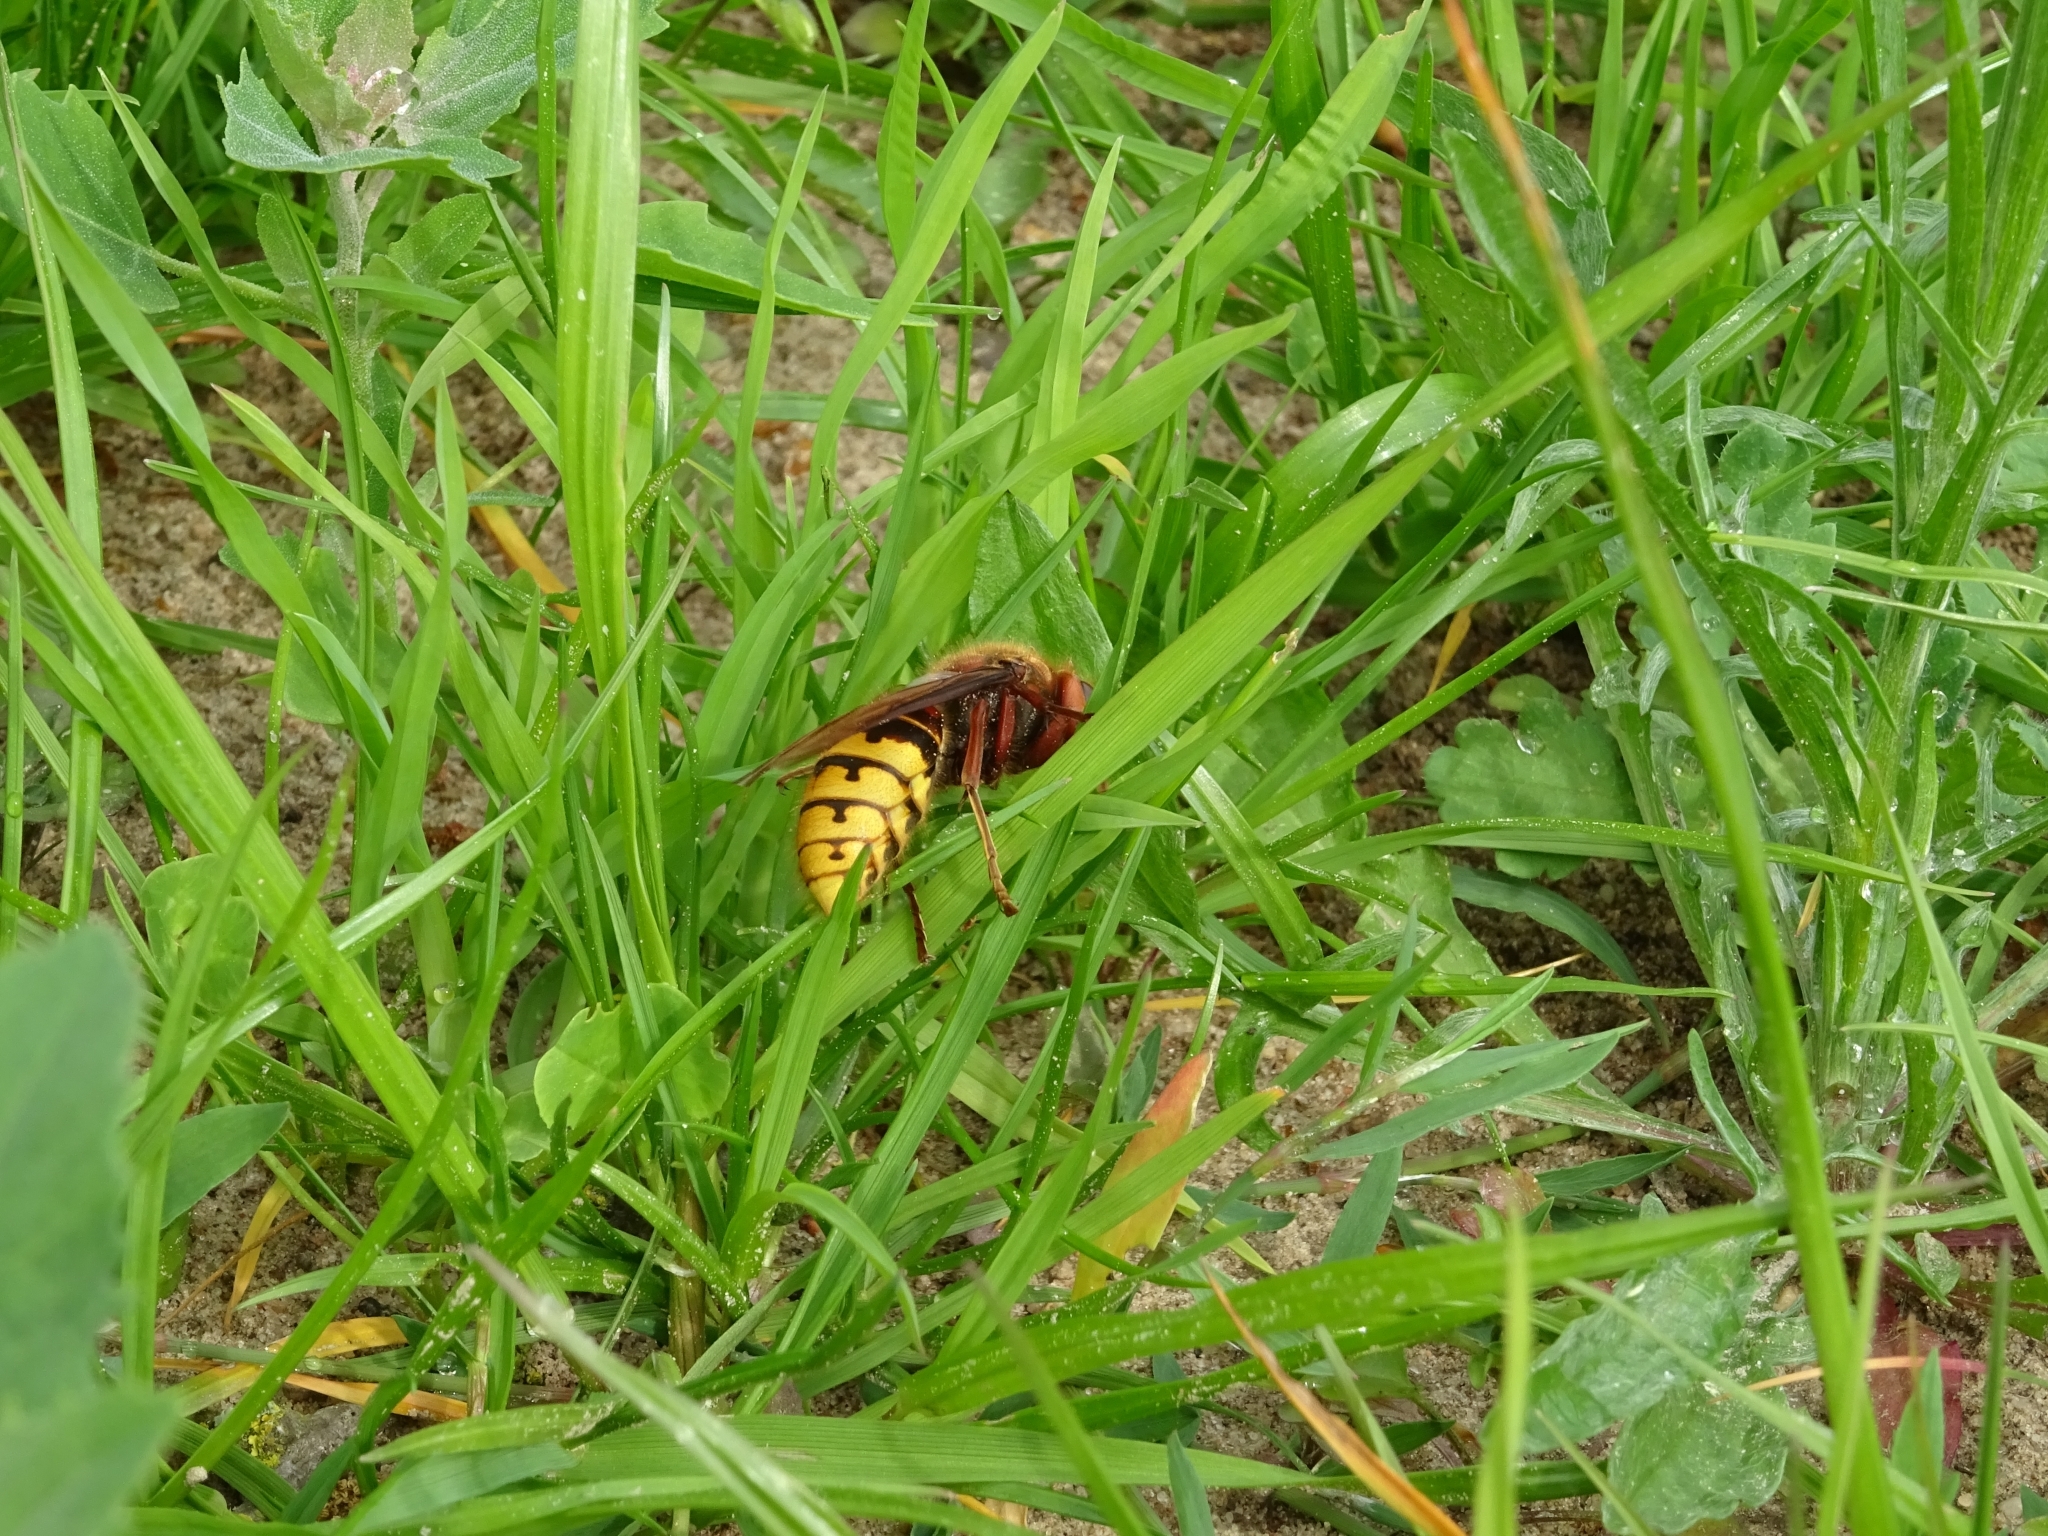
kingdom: Animalia
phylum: Arthropoda
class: Insecta
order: Hymenoptera
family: Vespidae
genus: Vespa
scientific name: Vespa crabro
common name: Hornet
